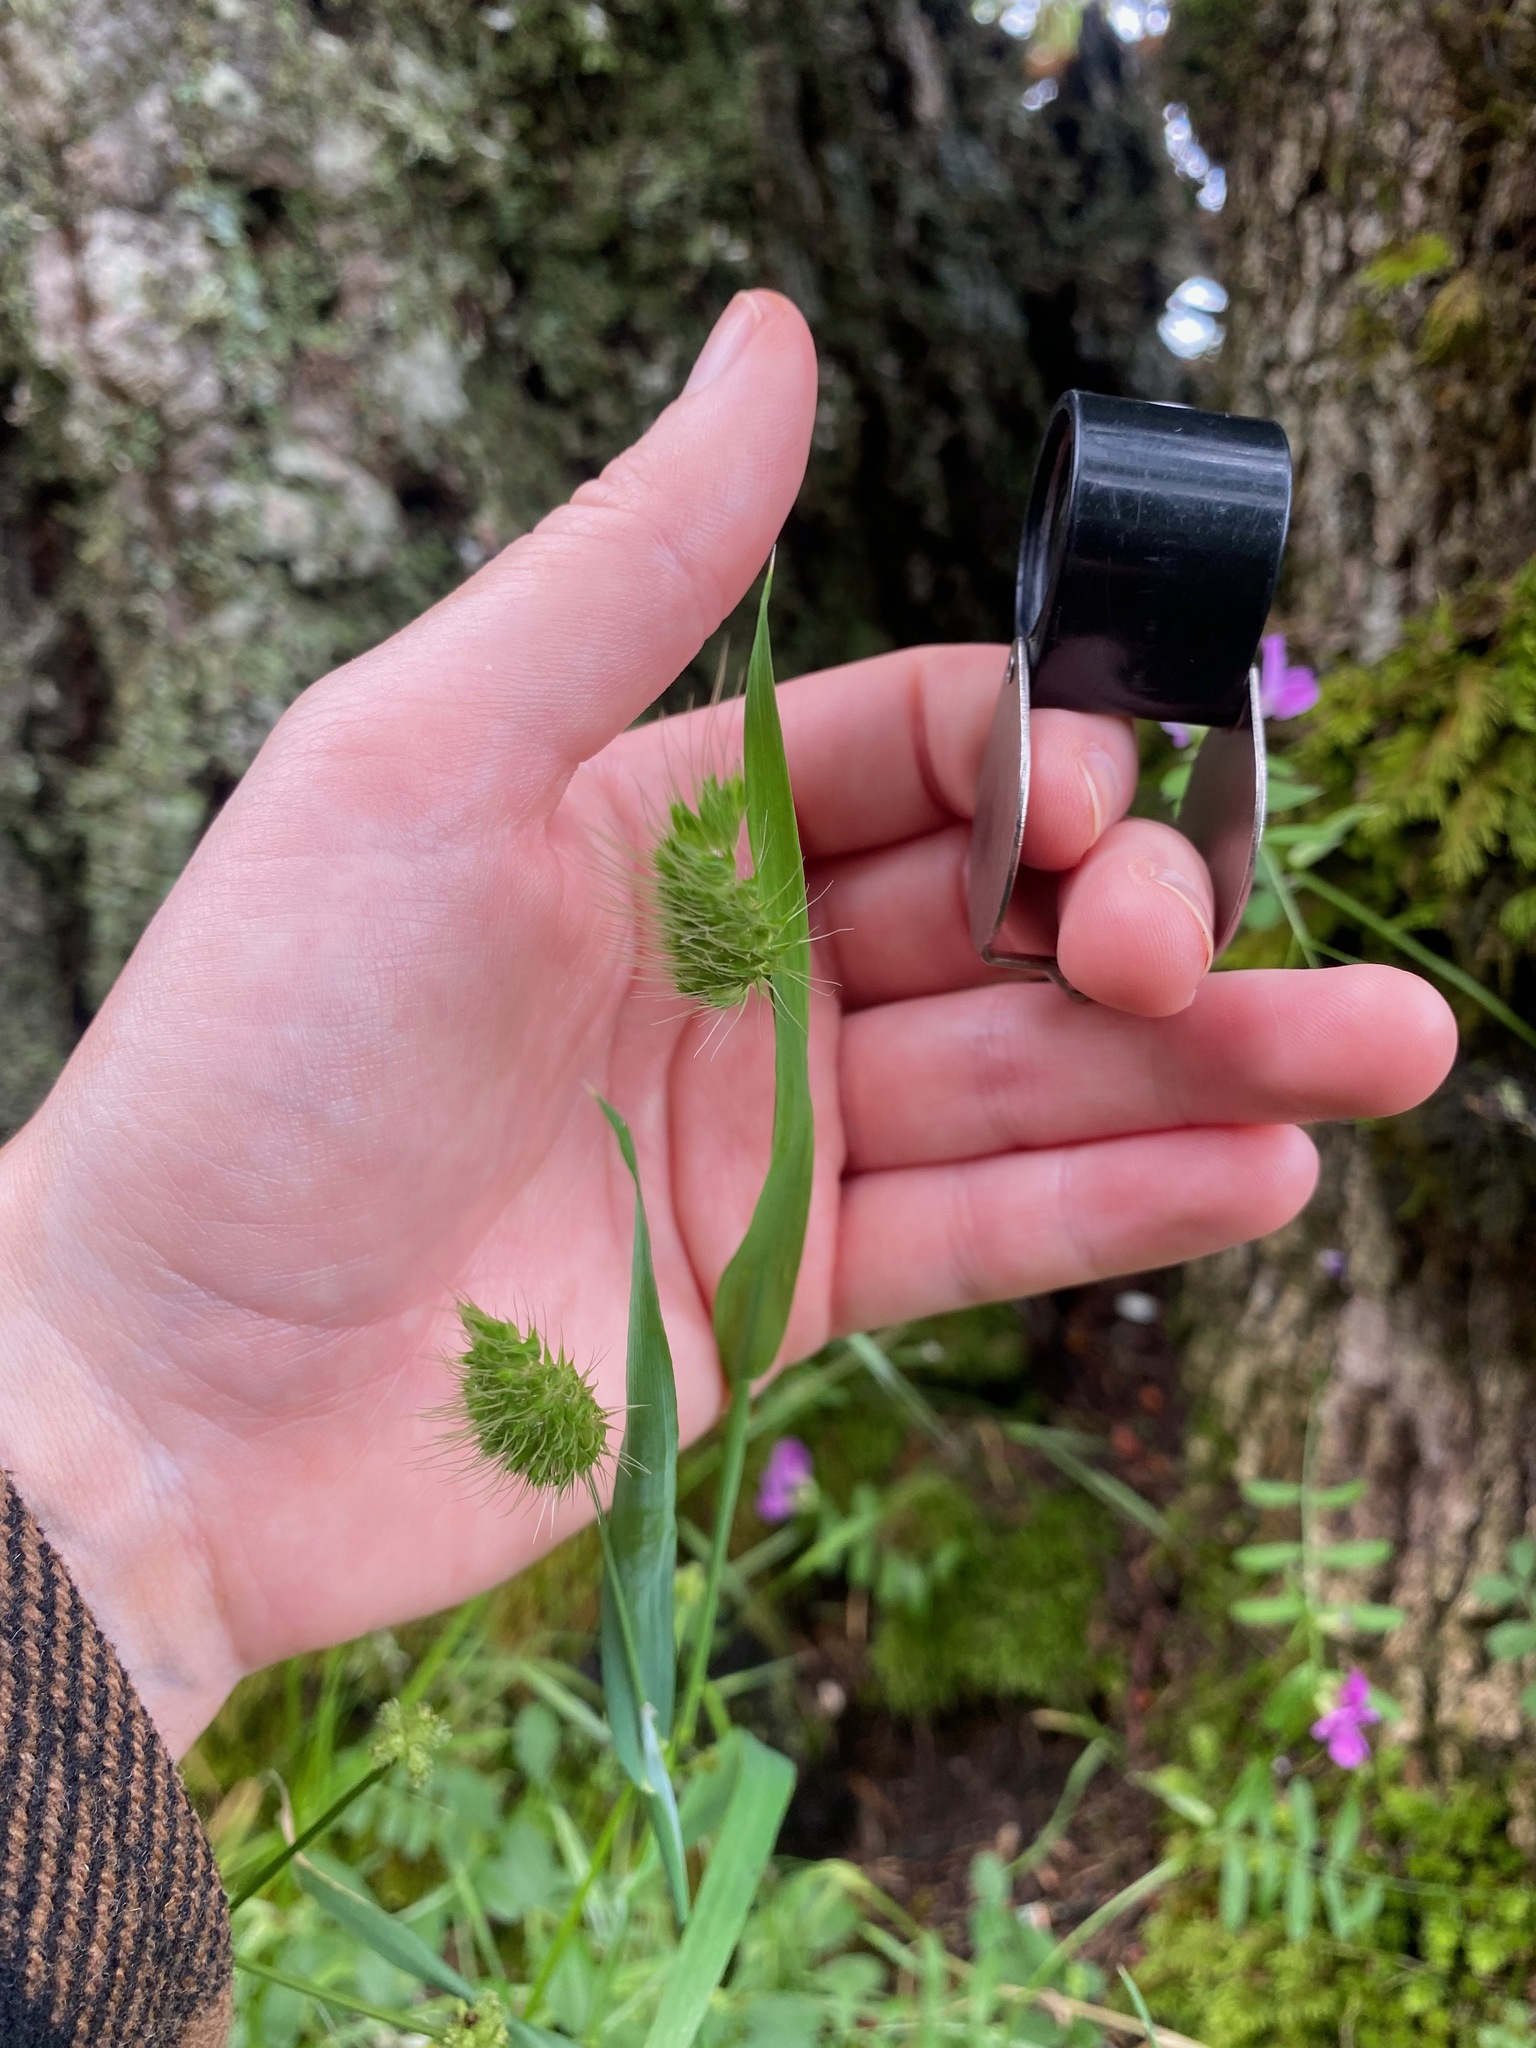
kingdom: Plantae
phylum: Tracheophyta
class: Liliopsida
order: Poales
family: Poaceae
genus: Cynosurus
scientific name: Cynosurus echinatus
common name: Rough dog's-tail
